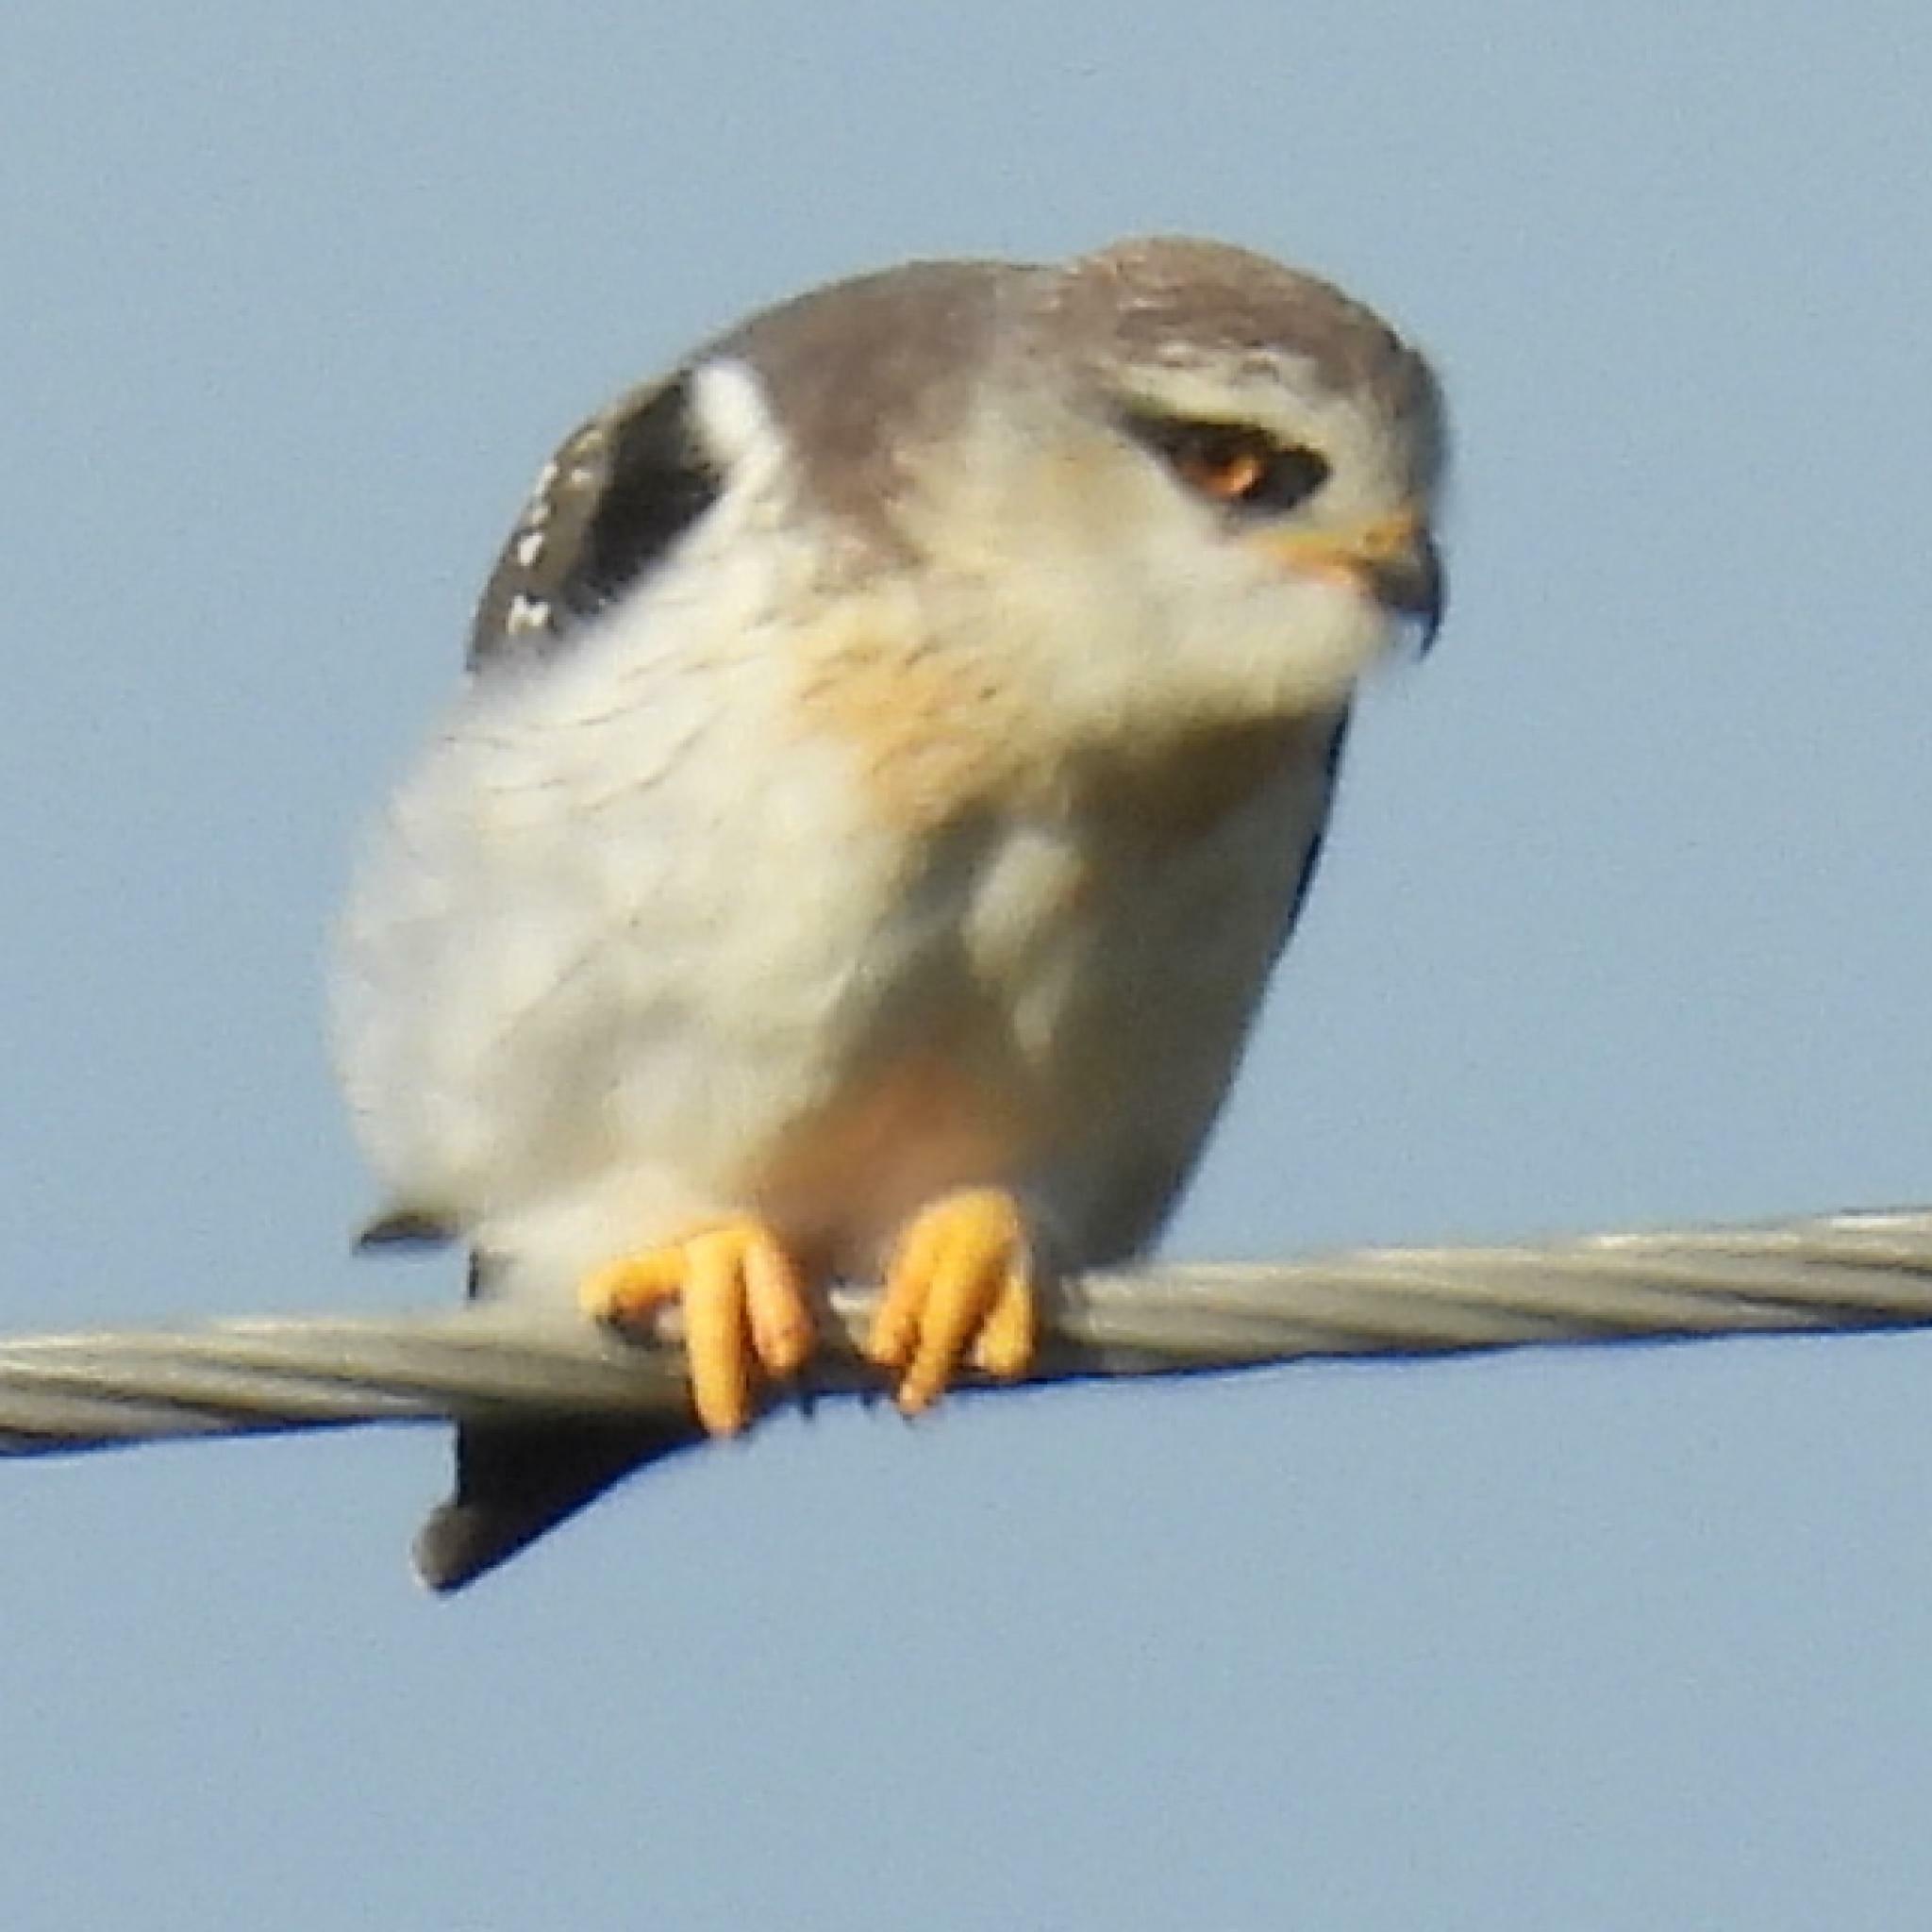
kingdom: Animalia
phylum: Chordata
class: Aves
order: Accipitriformes
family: Accipitridae
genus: Elanus
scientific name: Elanus caeruleus
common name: Black-winged kite
